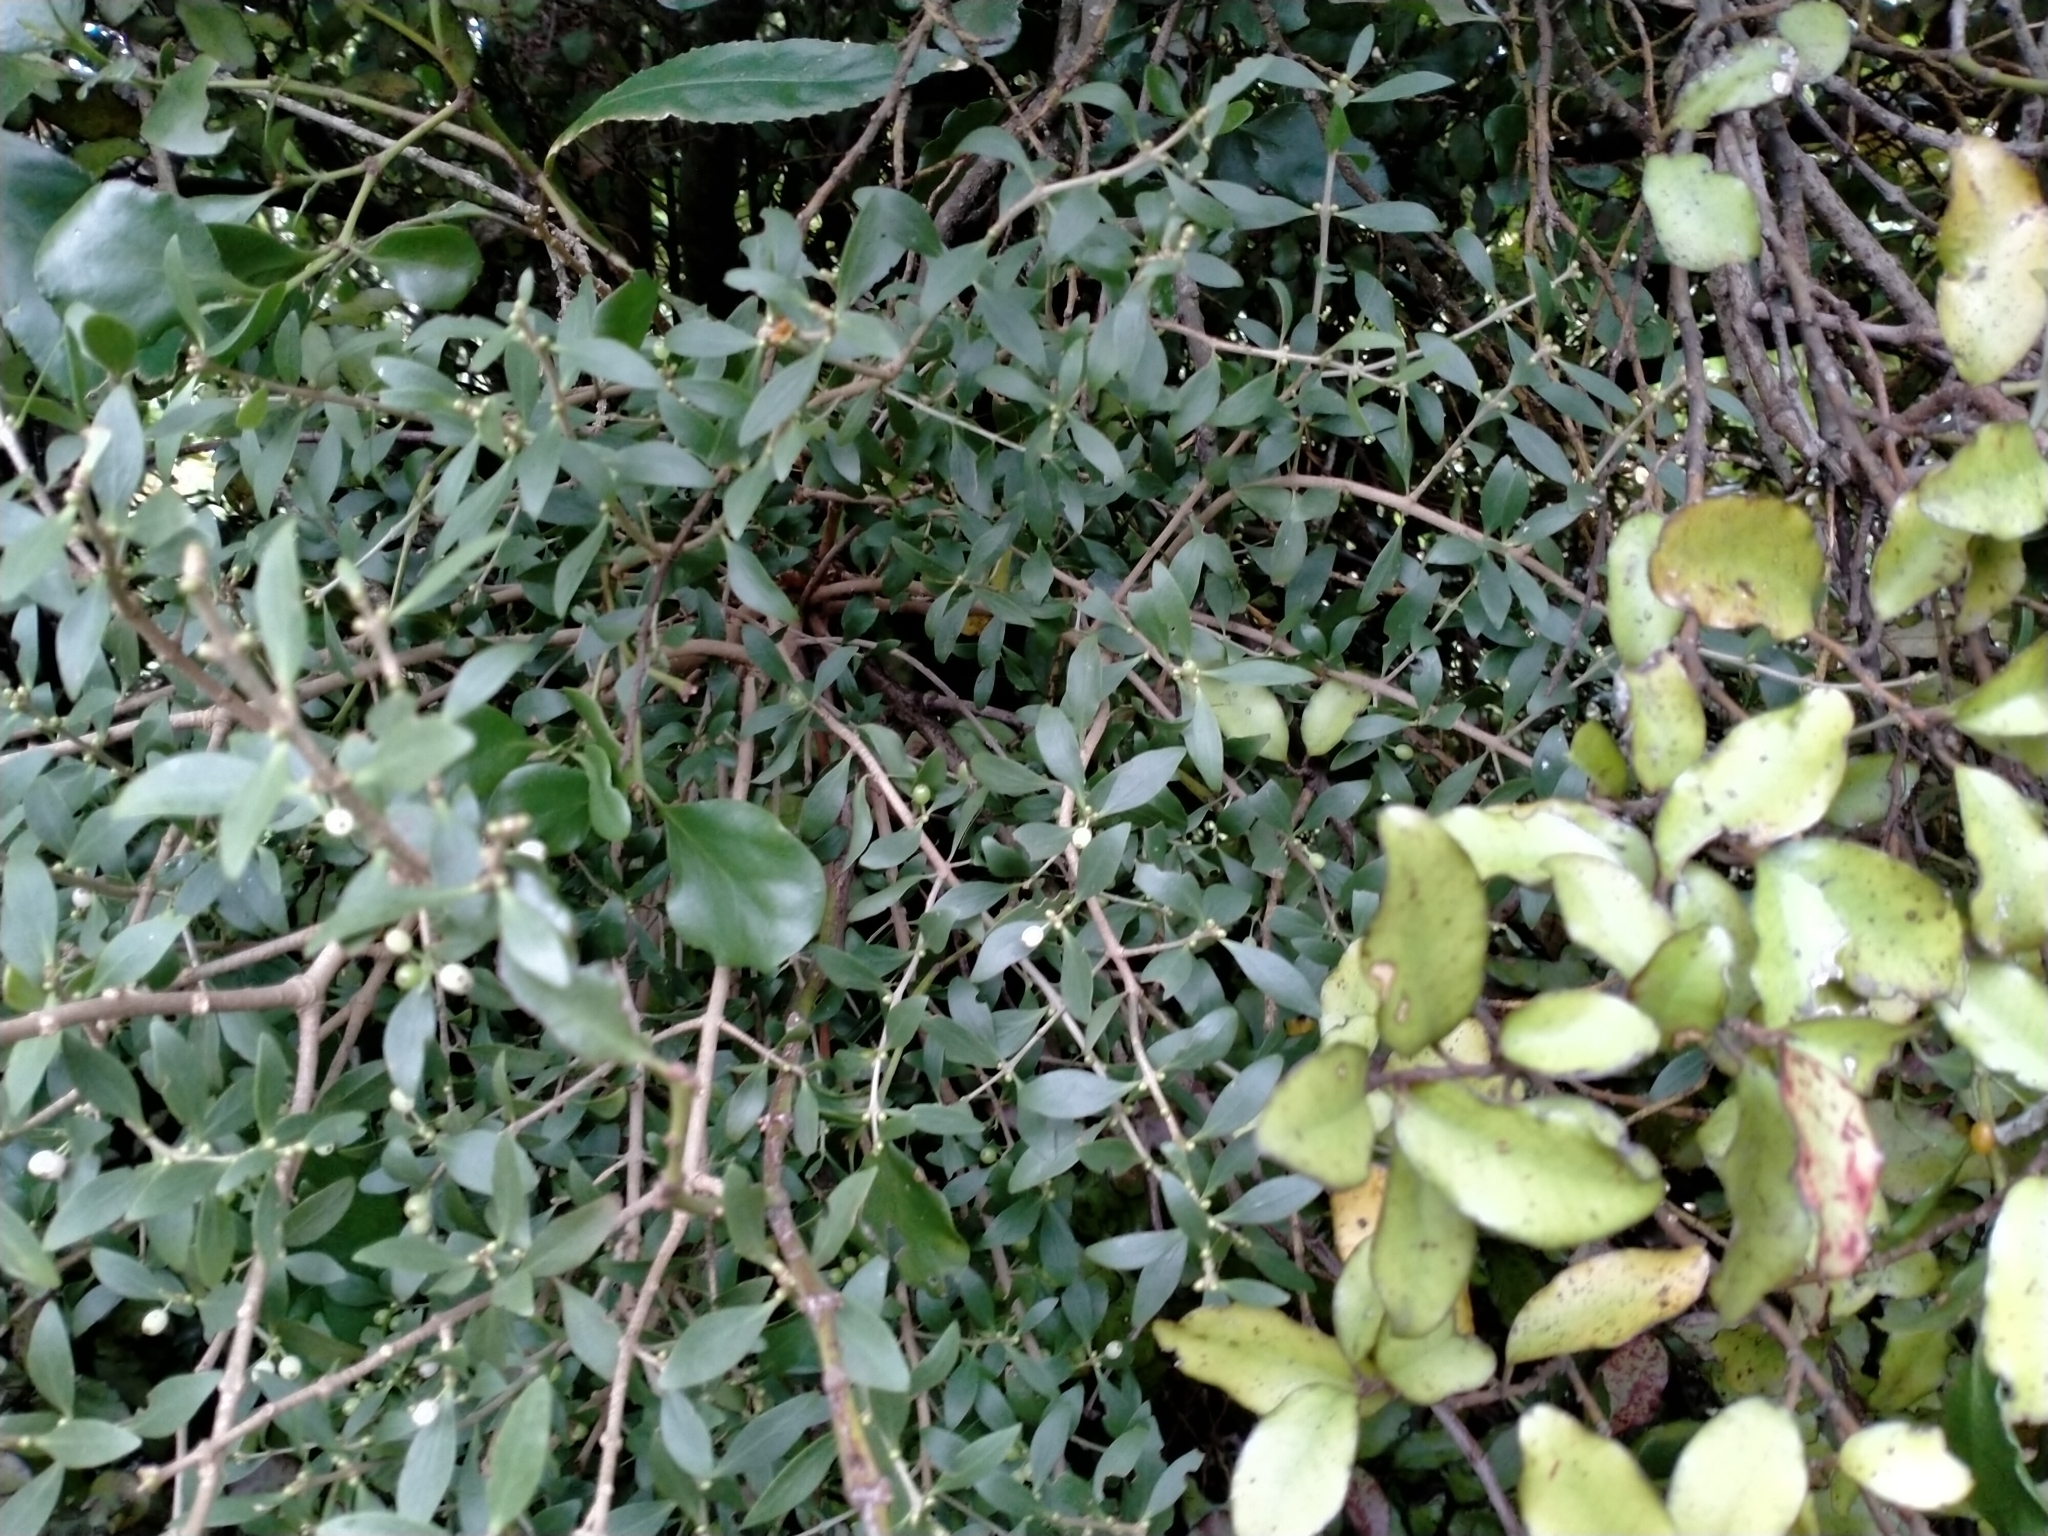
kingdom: Plantae
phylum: Tracheophyta
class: Magnoliopsida
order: Santalales
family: Loranthaceae
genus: Tupeia
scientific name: Tupeia antarctica
